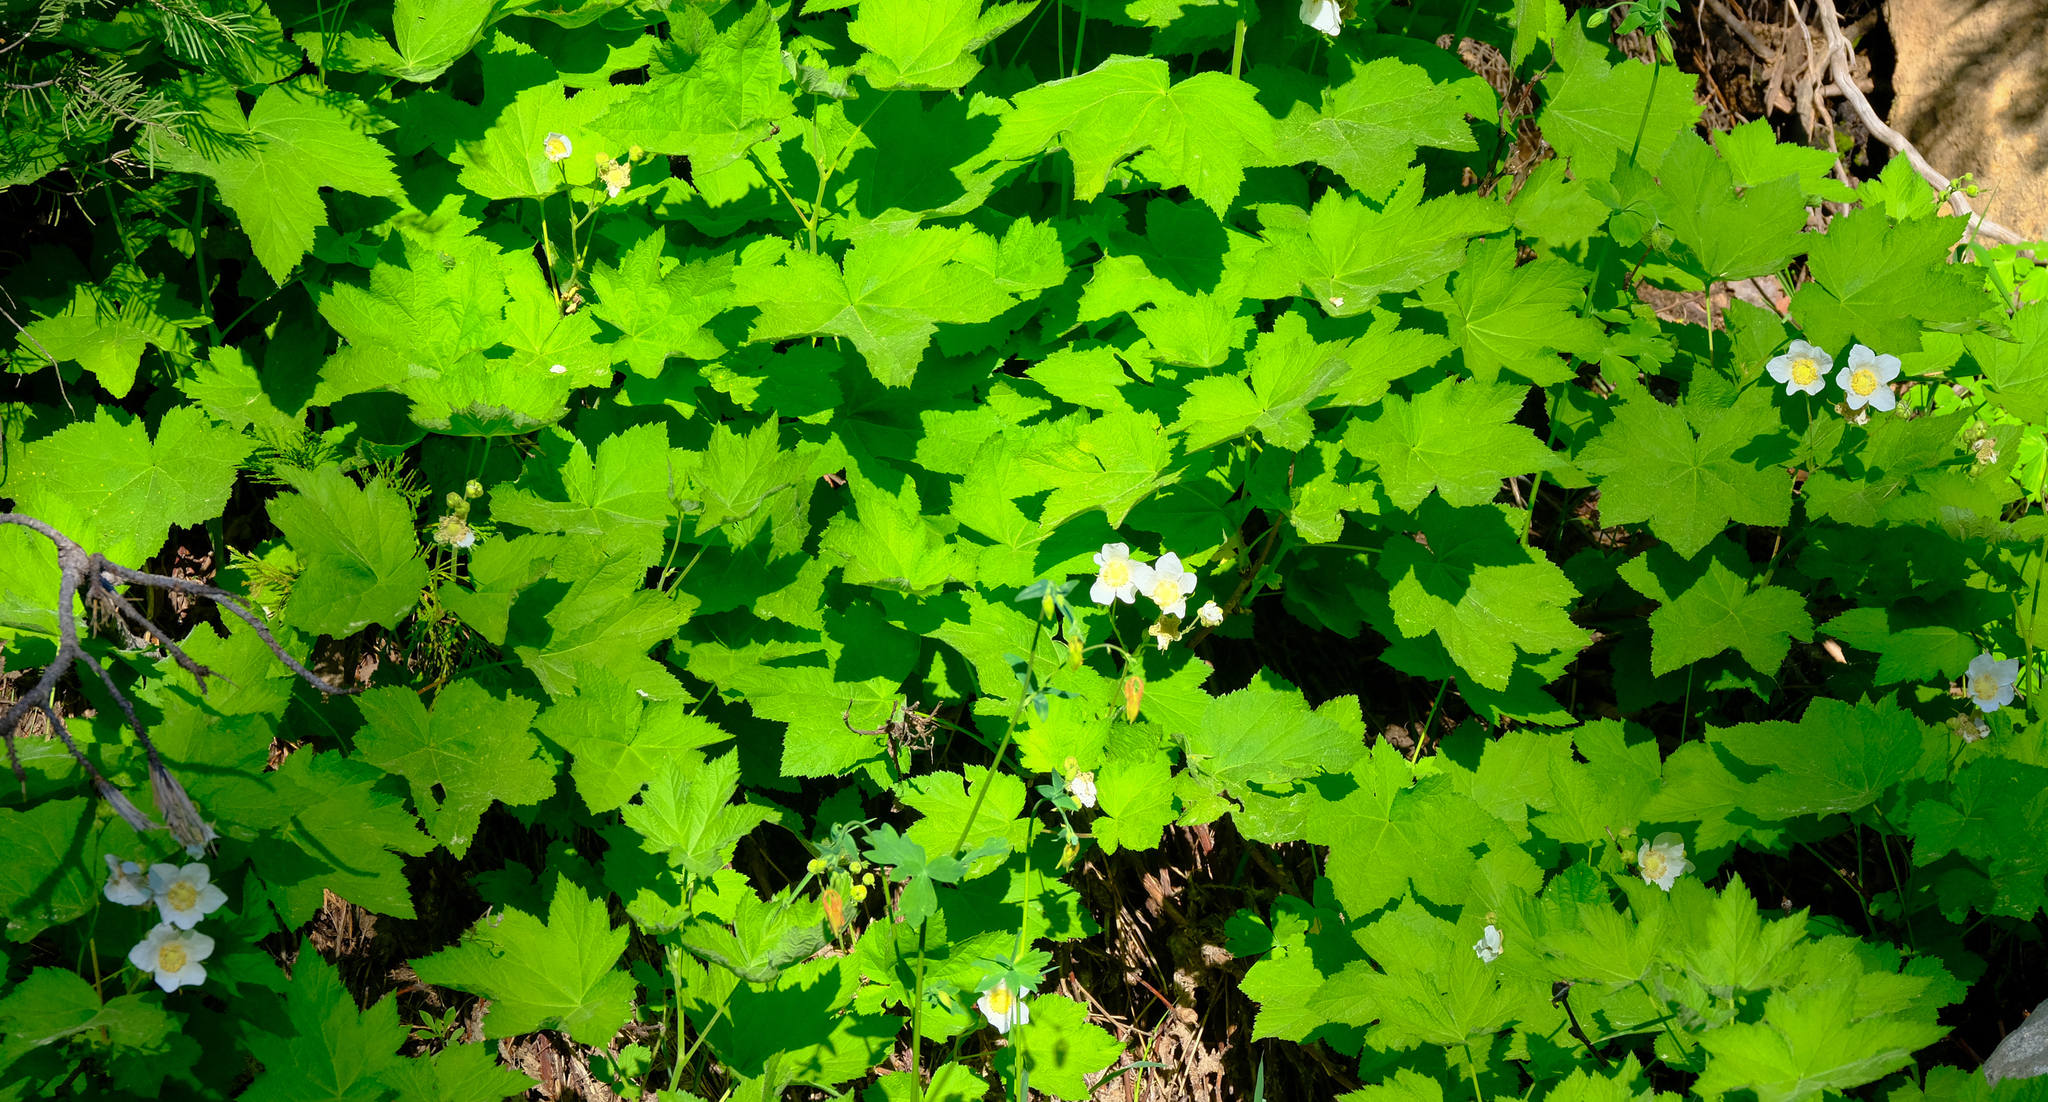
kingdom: Plantae
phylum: Tracheophyta
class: Magnoliopsida
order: Rosales
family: Rosaceae
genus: Rubus
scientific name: Rubus parviflorus
